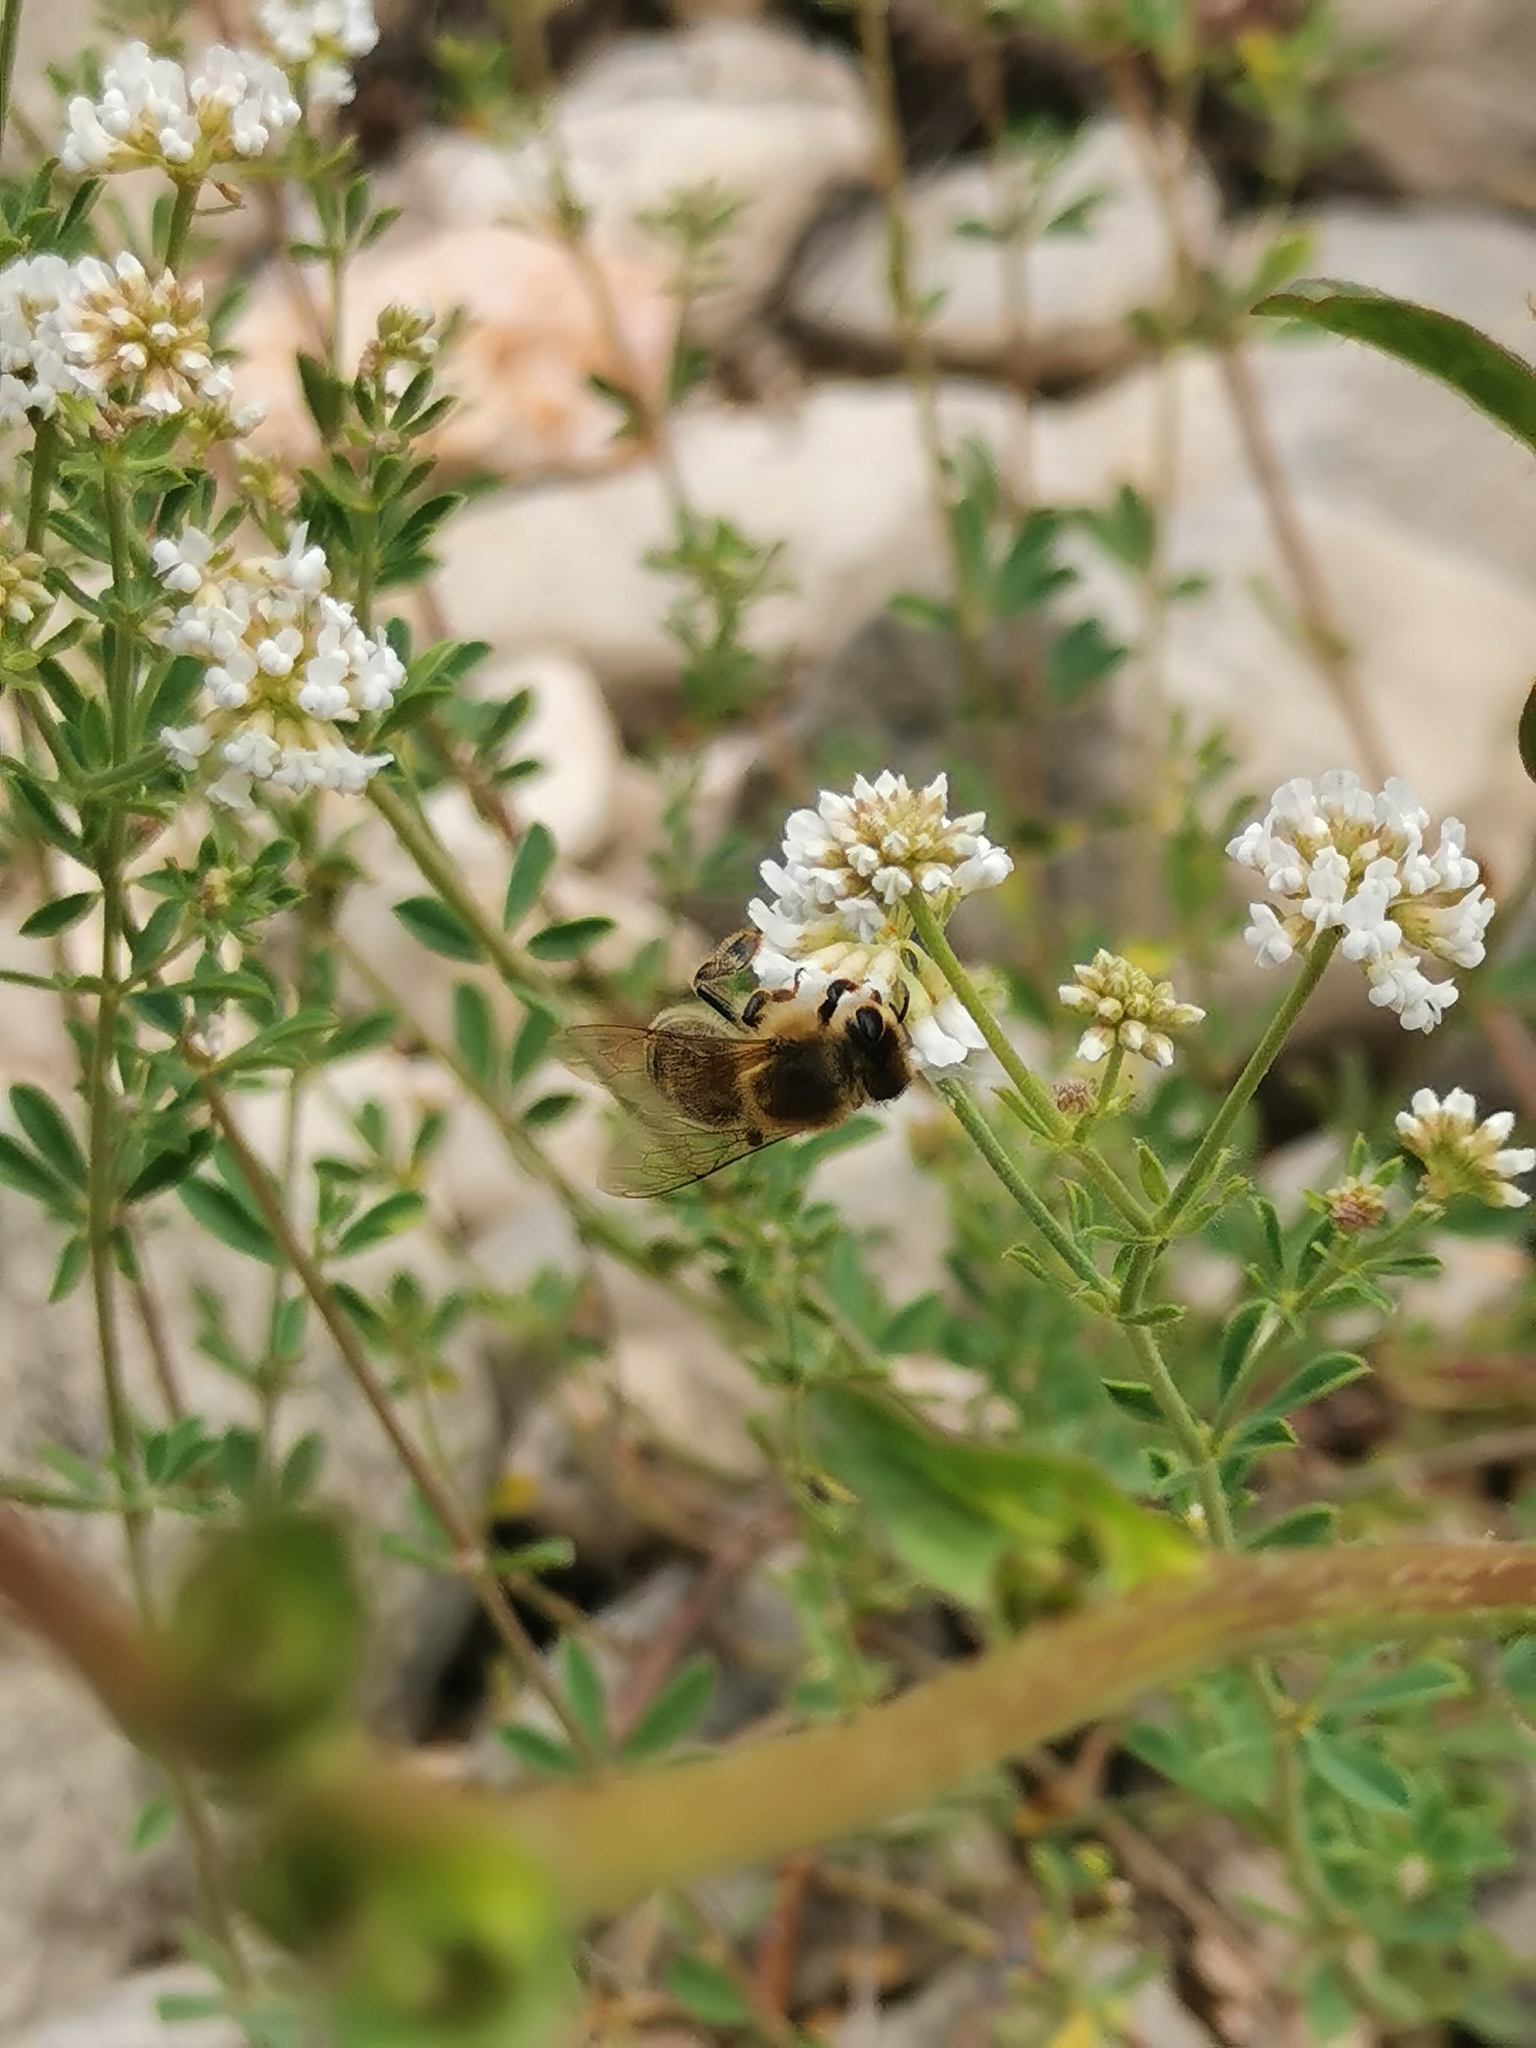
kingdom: Animalia
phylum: Arthropoda
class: Insecta
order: Hymenoptera
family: Apidae
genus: Apis
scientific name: Apis mellifera
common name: Honey bee
